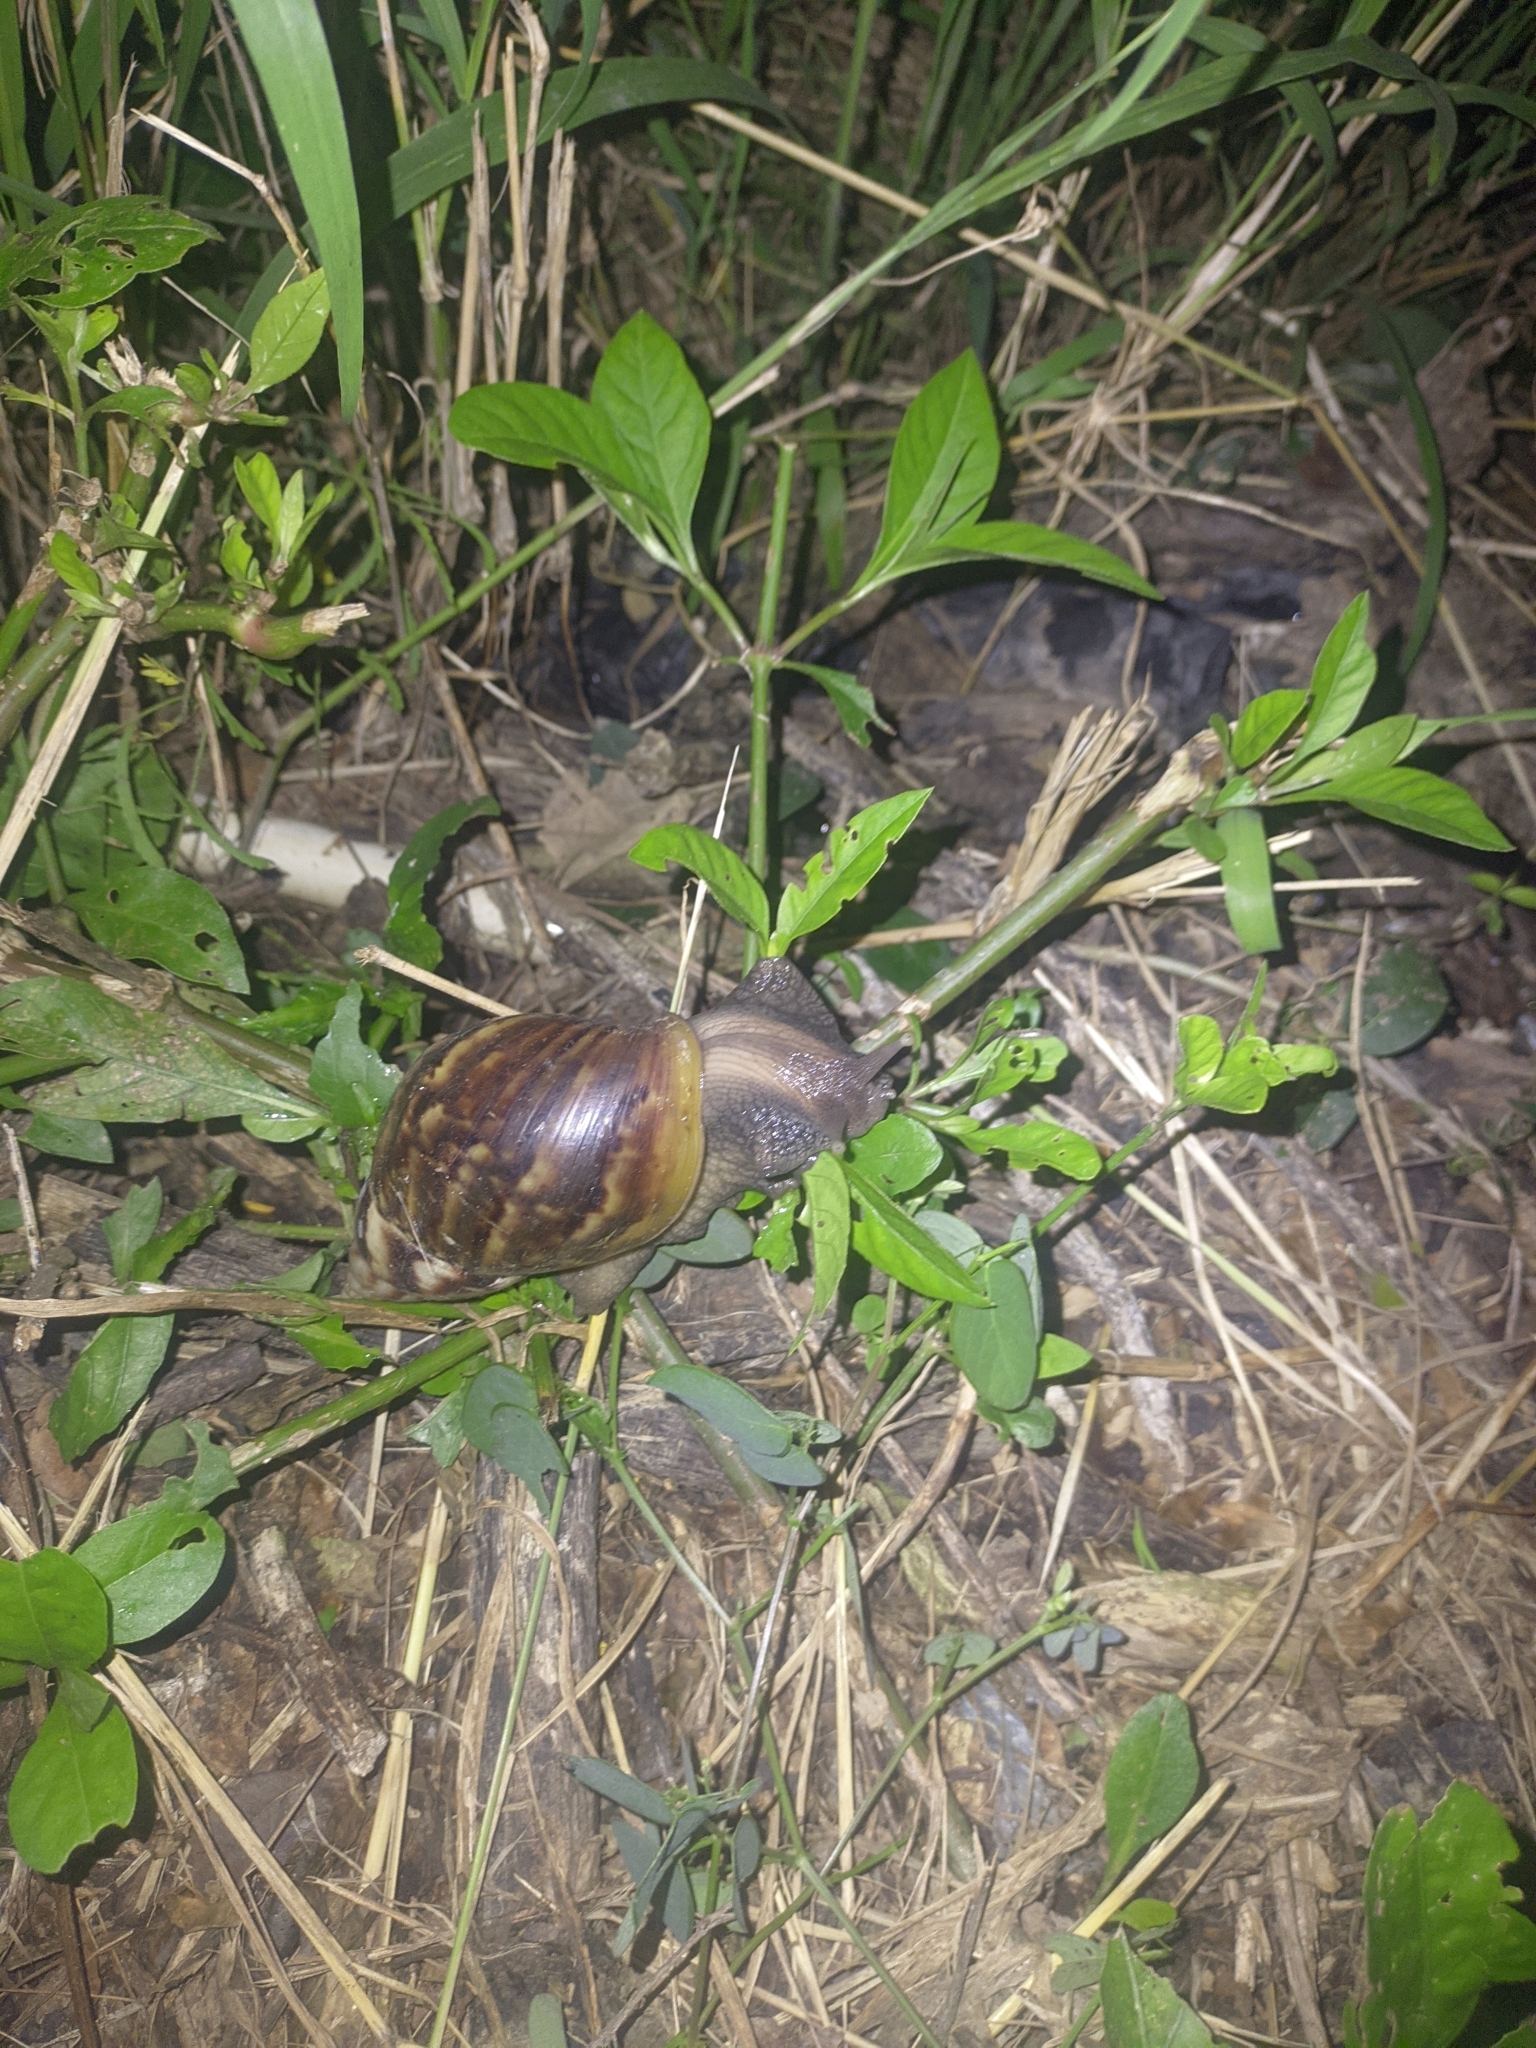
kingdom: Animalia
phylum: Mollusca
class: Gastropoda
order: Stylommatophora
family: Achatinidae
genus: Lissachatina
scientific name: Lissachatina fulica
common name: Giant african snail
